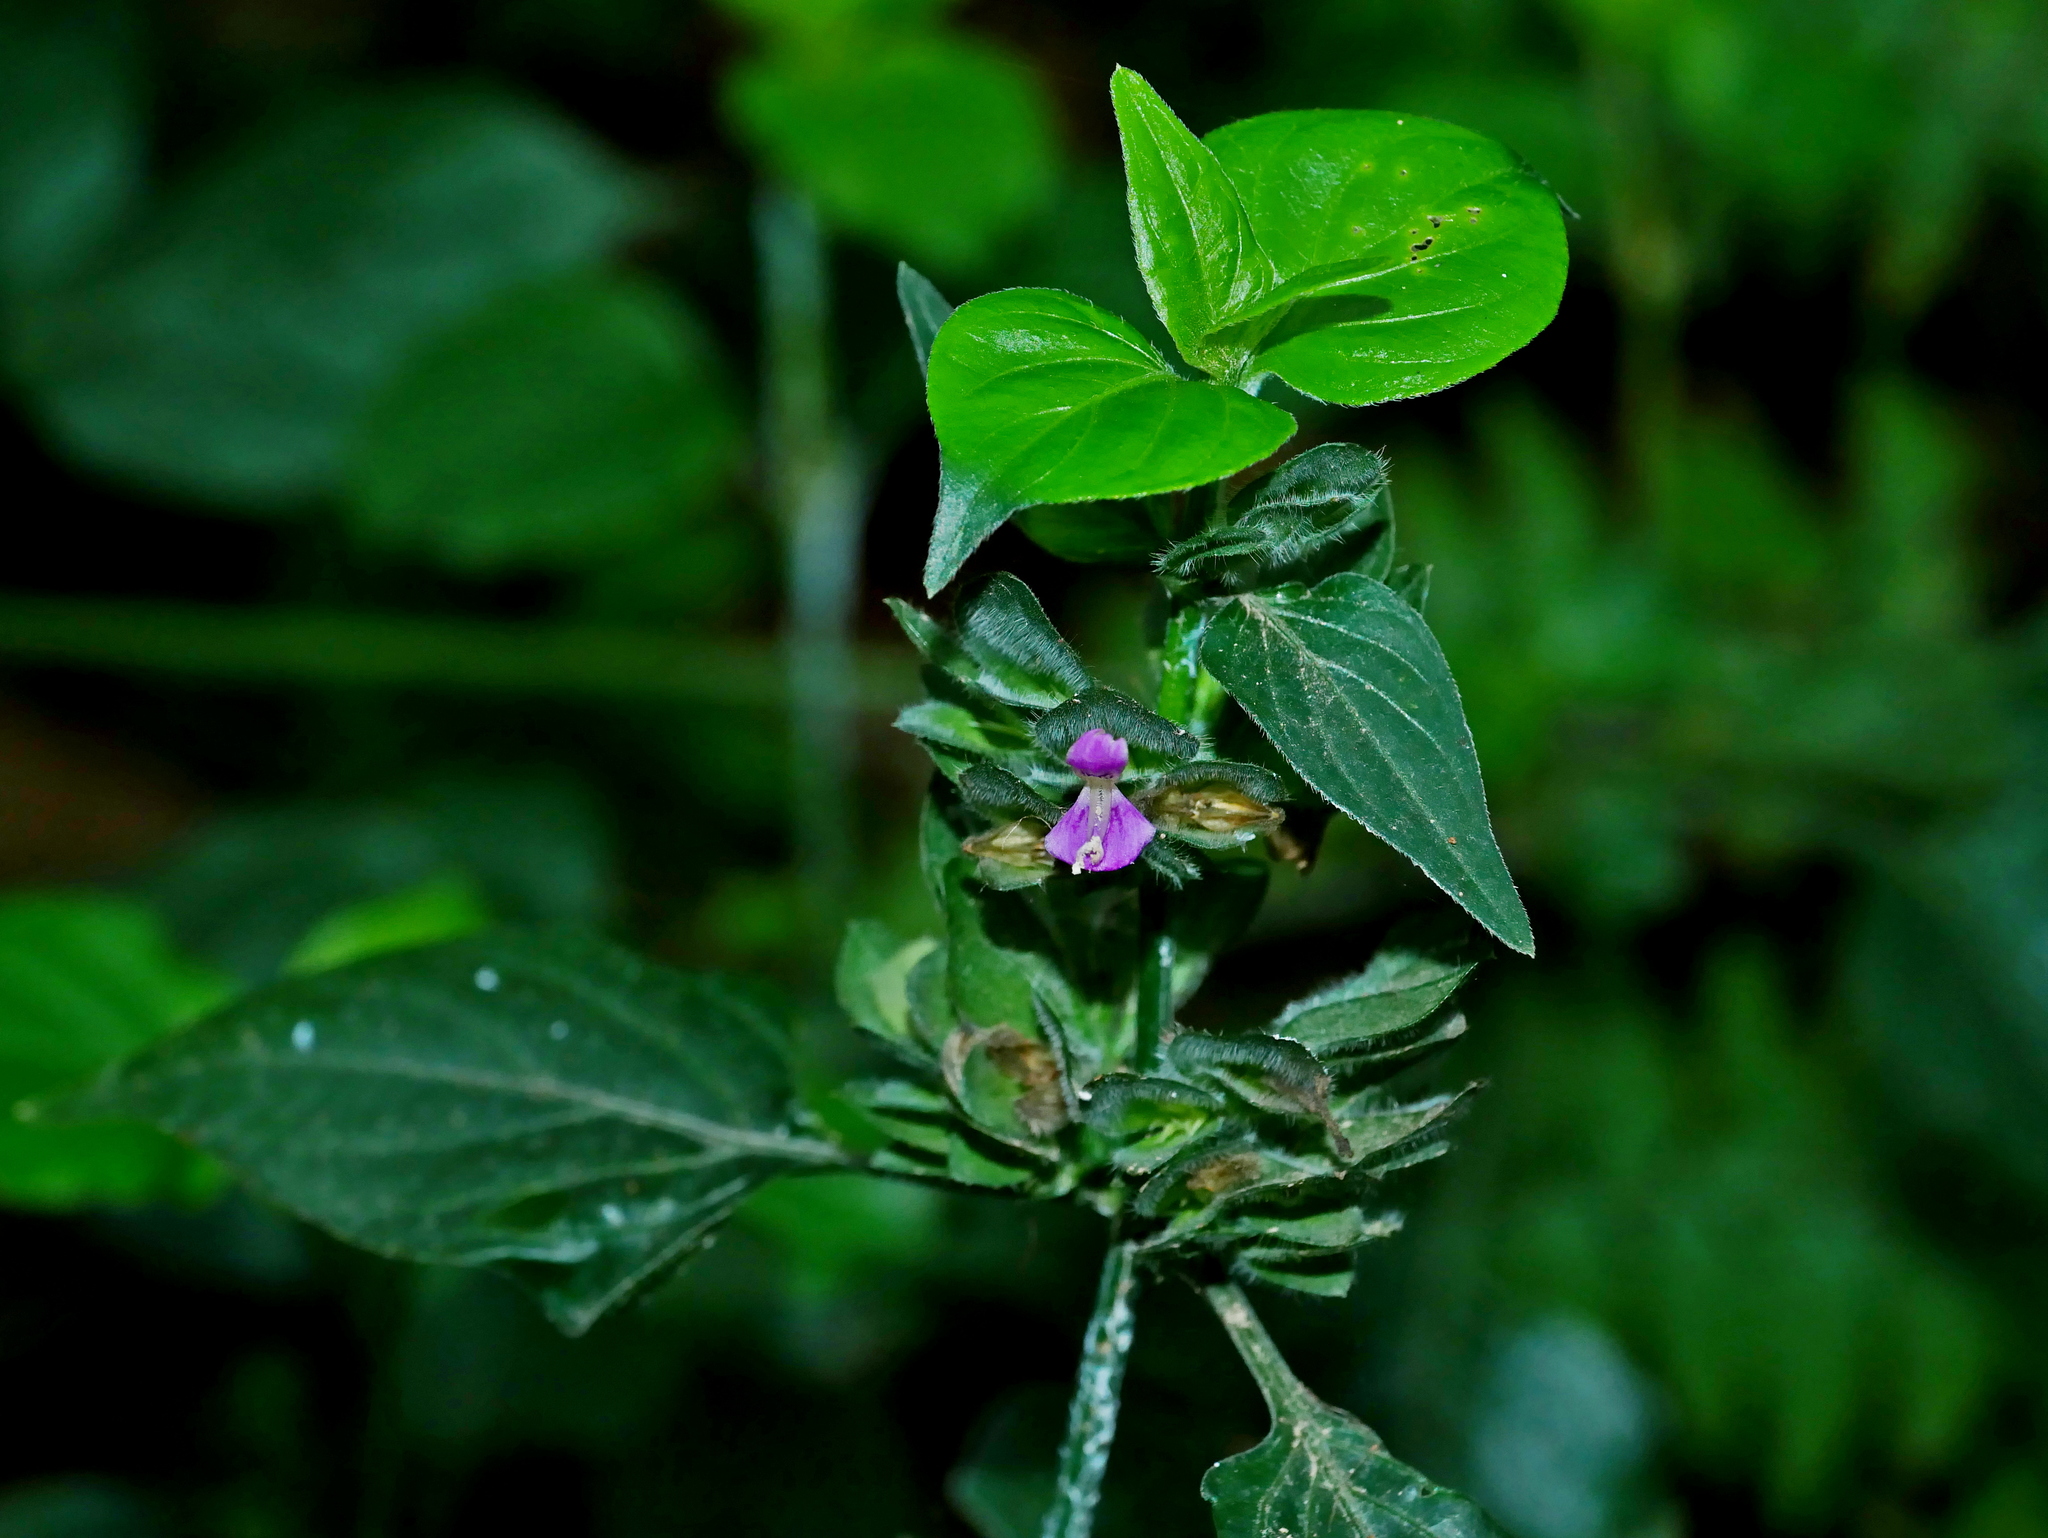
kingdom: Plantae
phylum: Tracheophyta
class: Magnoliopsida
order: Lamiales
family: Acanthaceae
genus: Dicliptera
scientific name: Dicliptera chinensis
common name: Chinese foldwing
